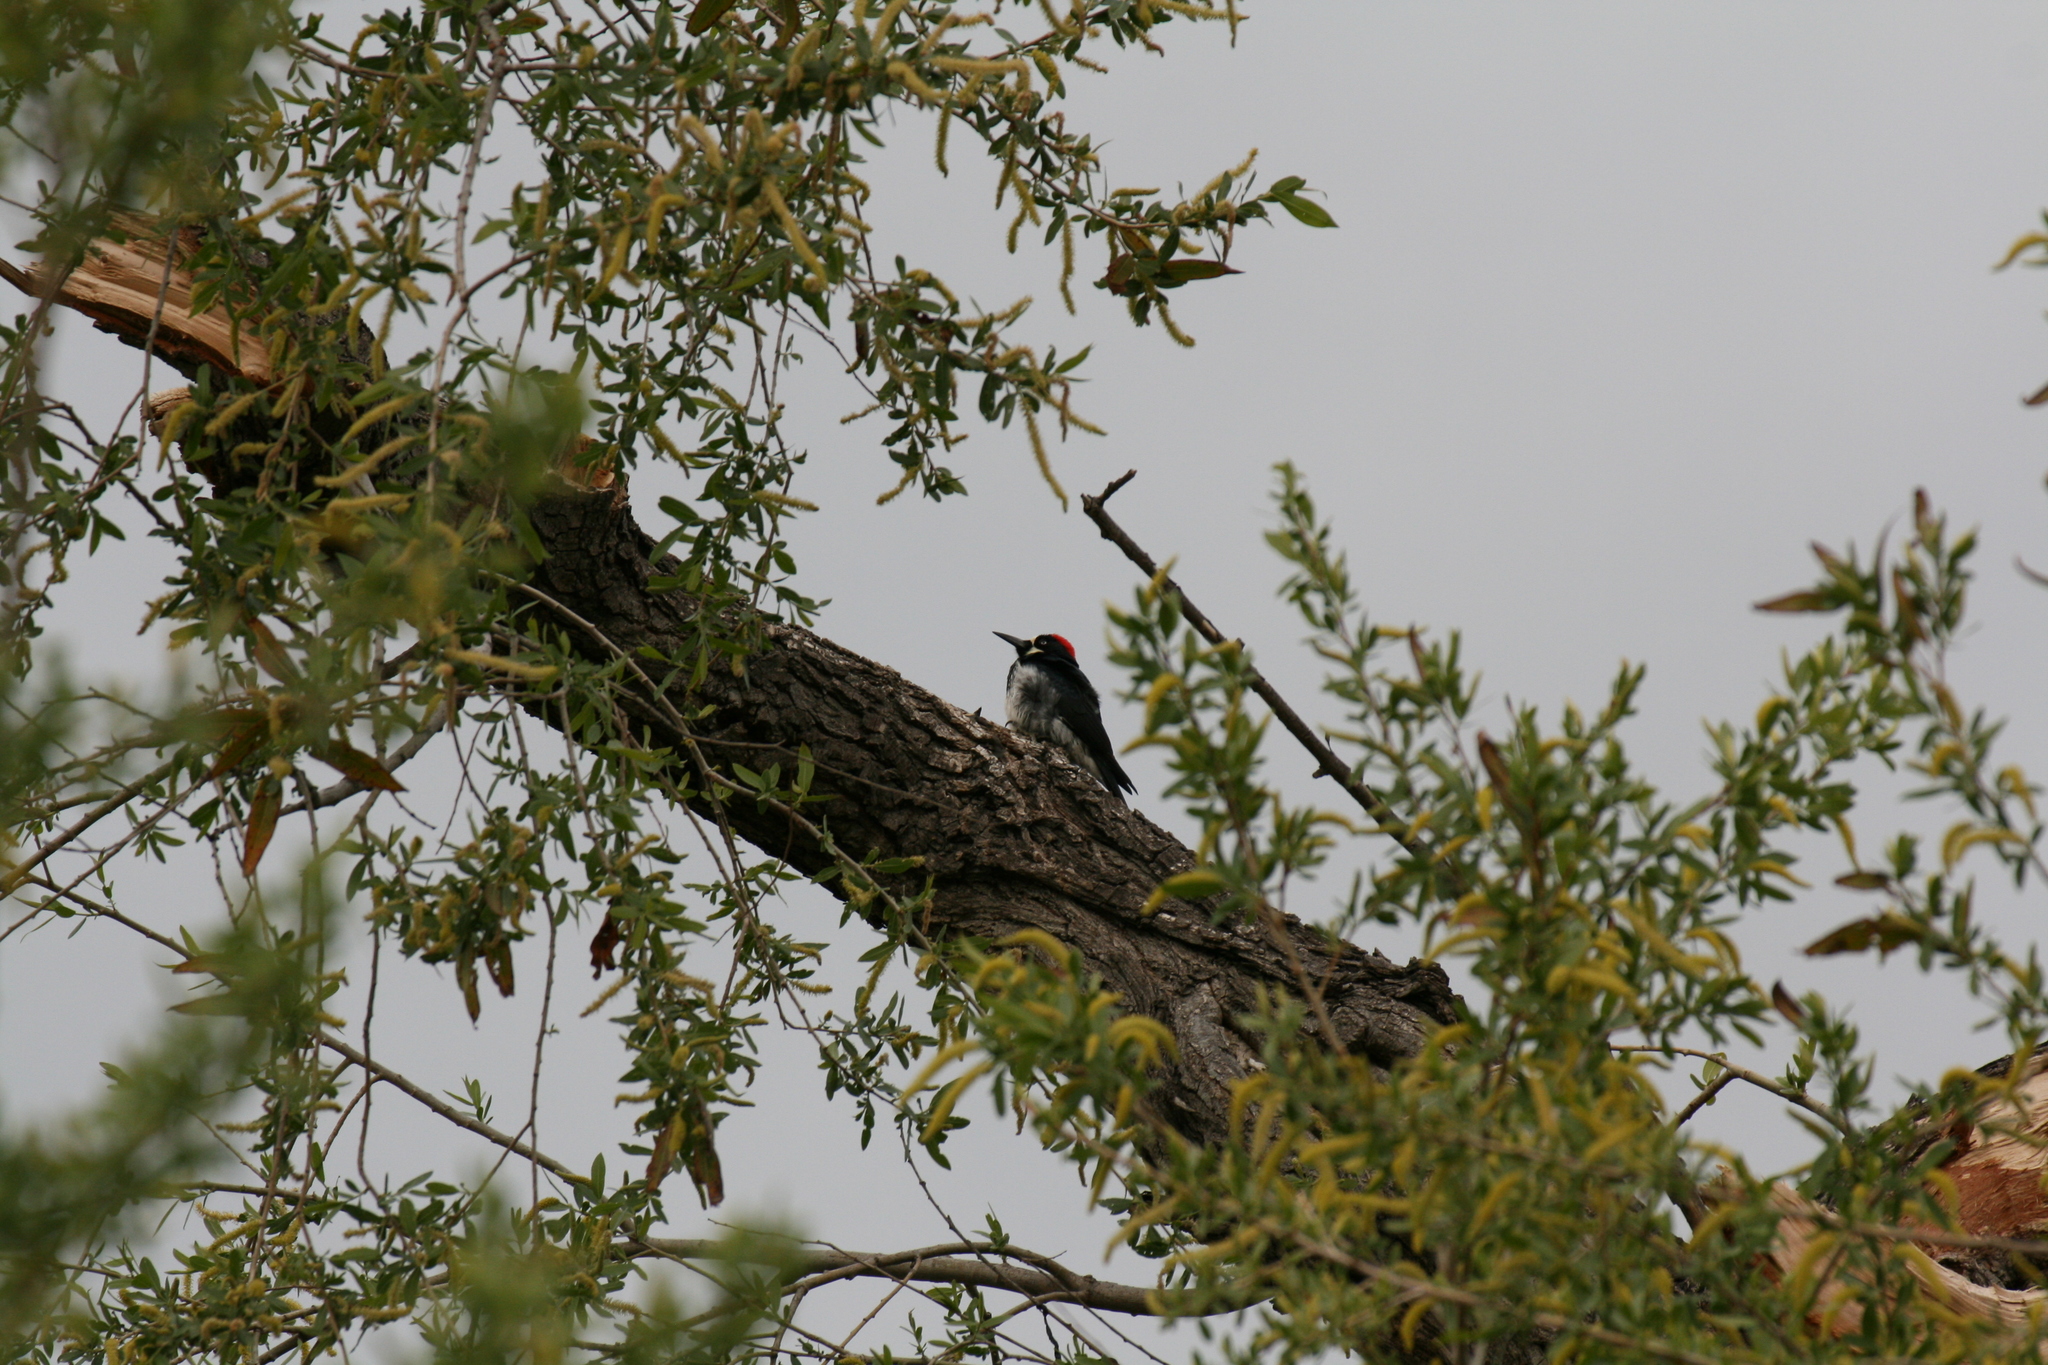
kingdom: Animalia
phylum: Chordata
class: Aves
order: Piciformes
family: Picidae
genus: Melanerpes
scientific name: Melanerpes formicivorus
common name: Acorn woodpecker
